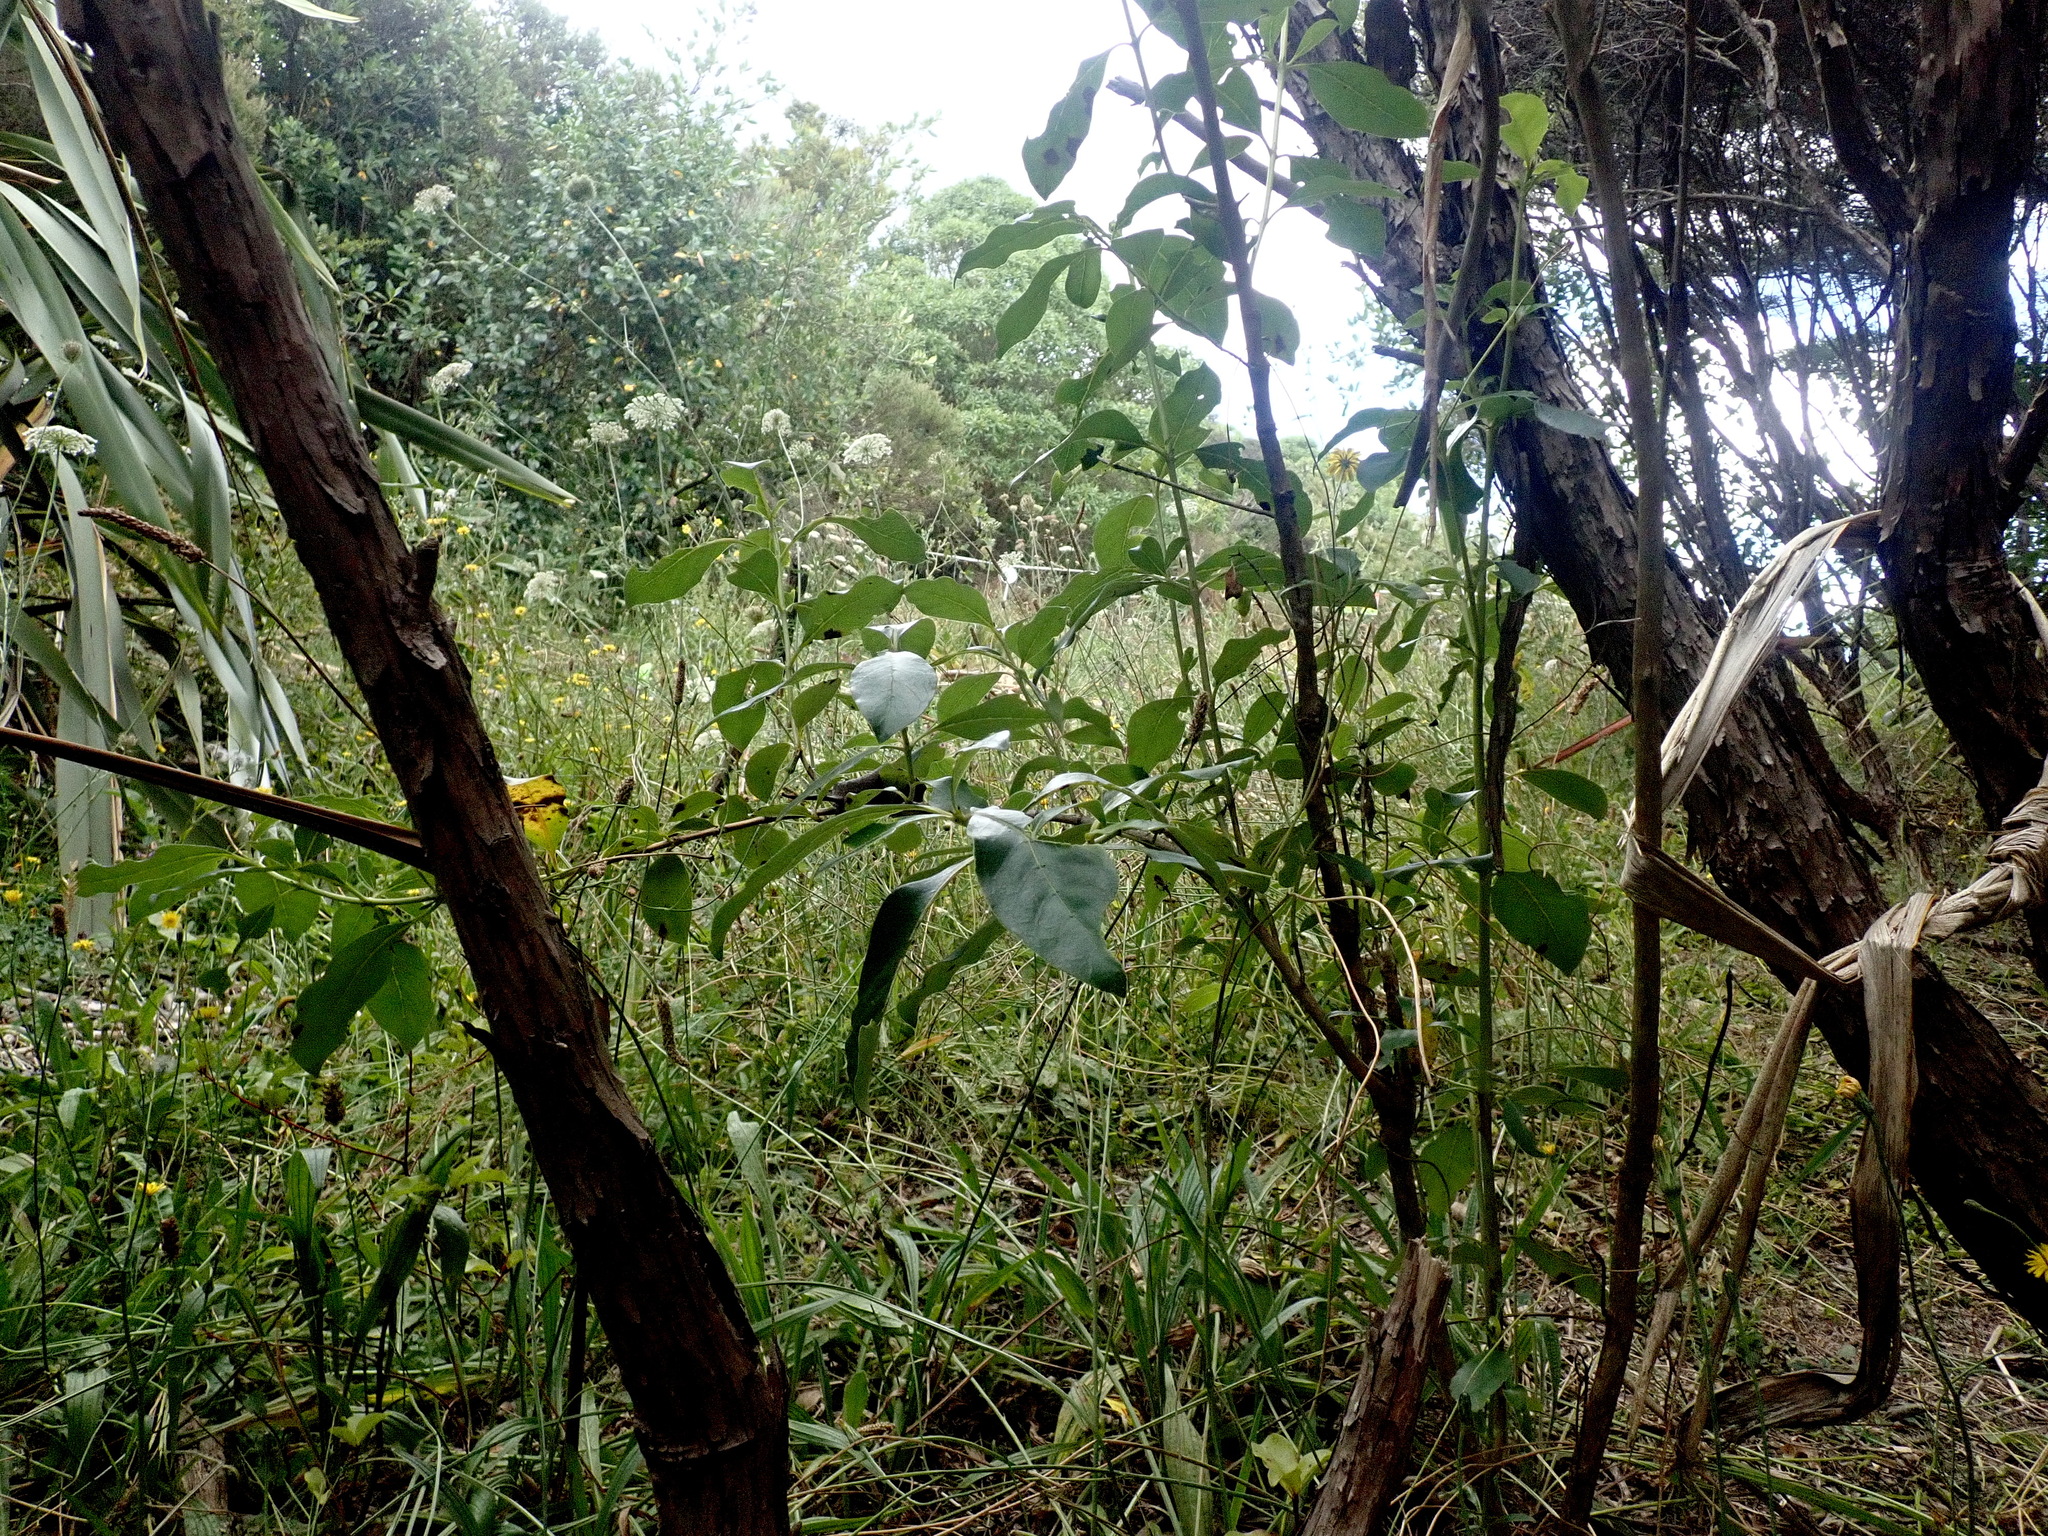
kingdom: Plantae
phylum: Tracheophyta
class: Magnoliopsida
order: Apiales
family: Apiaceae
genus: Daucus
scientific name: Daucus carota
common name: Wild carrot
